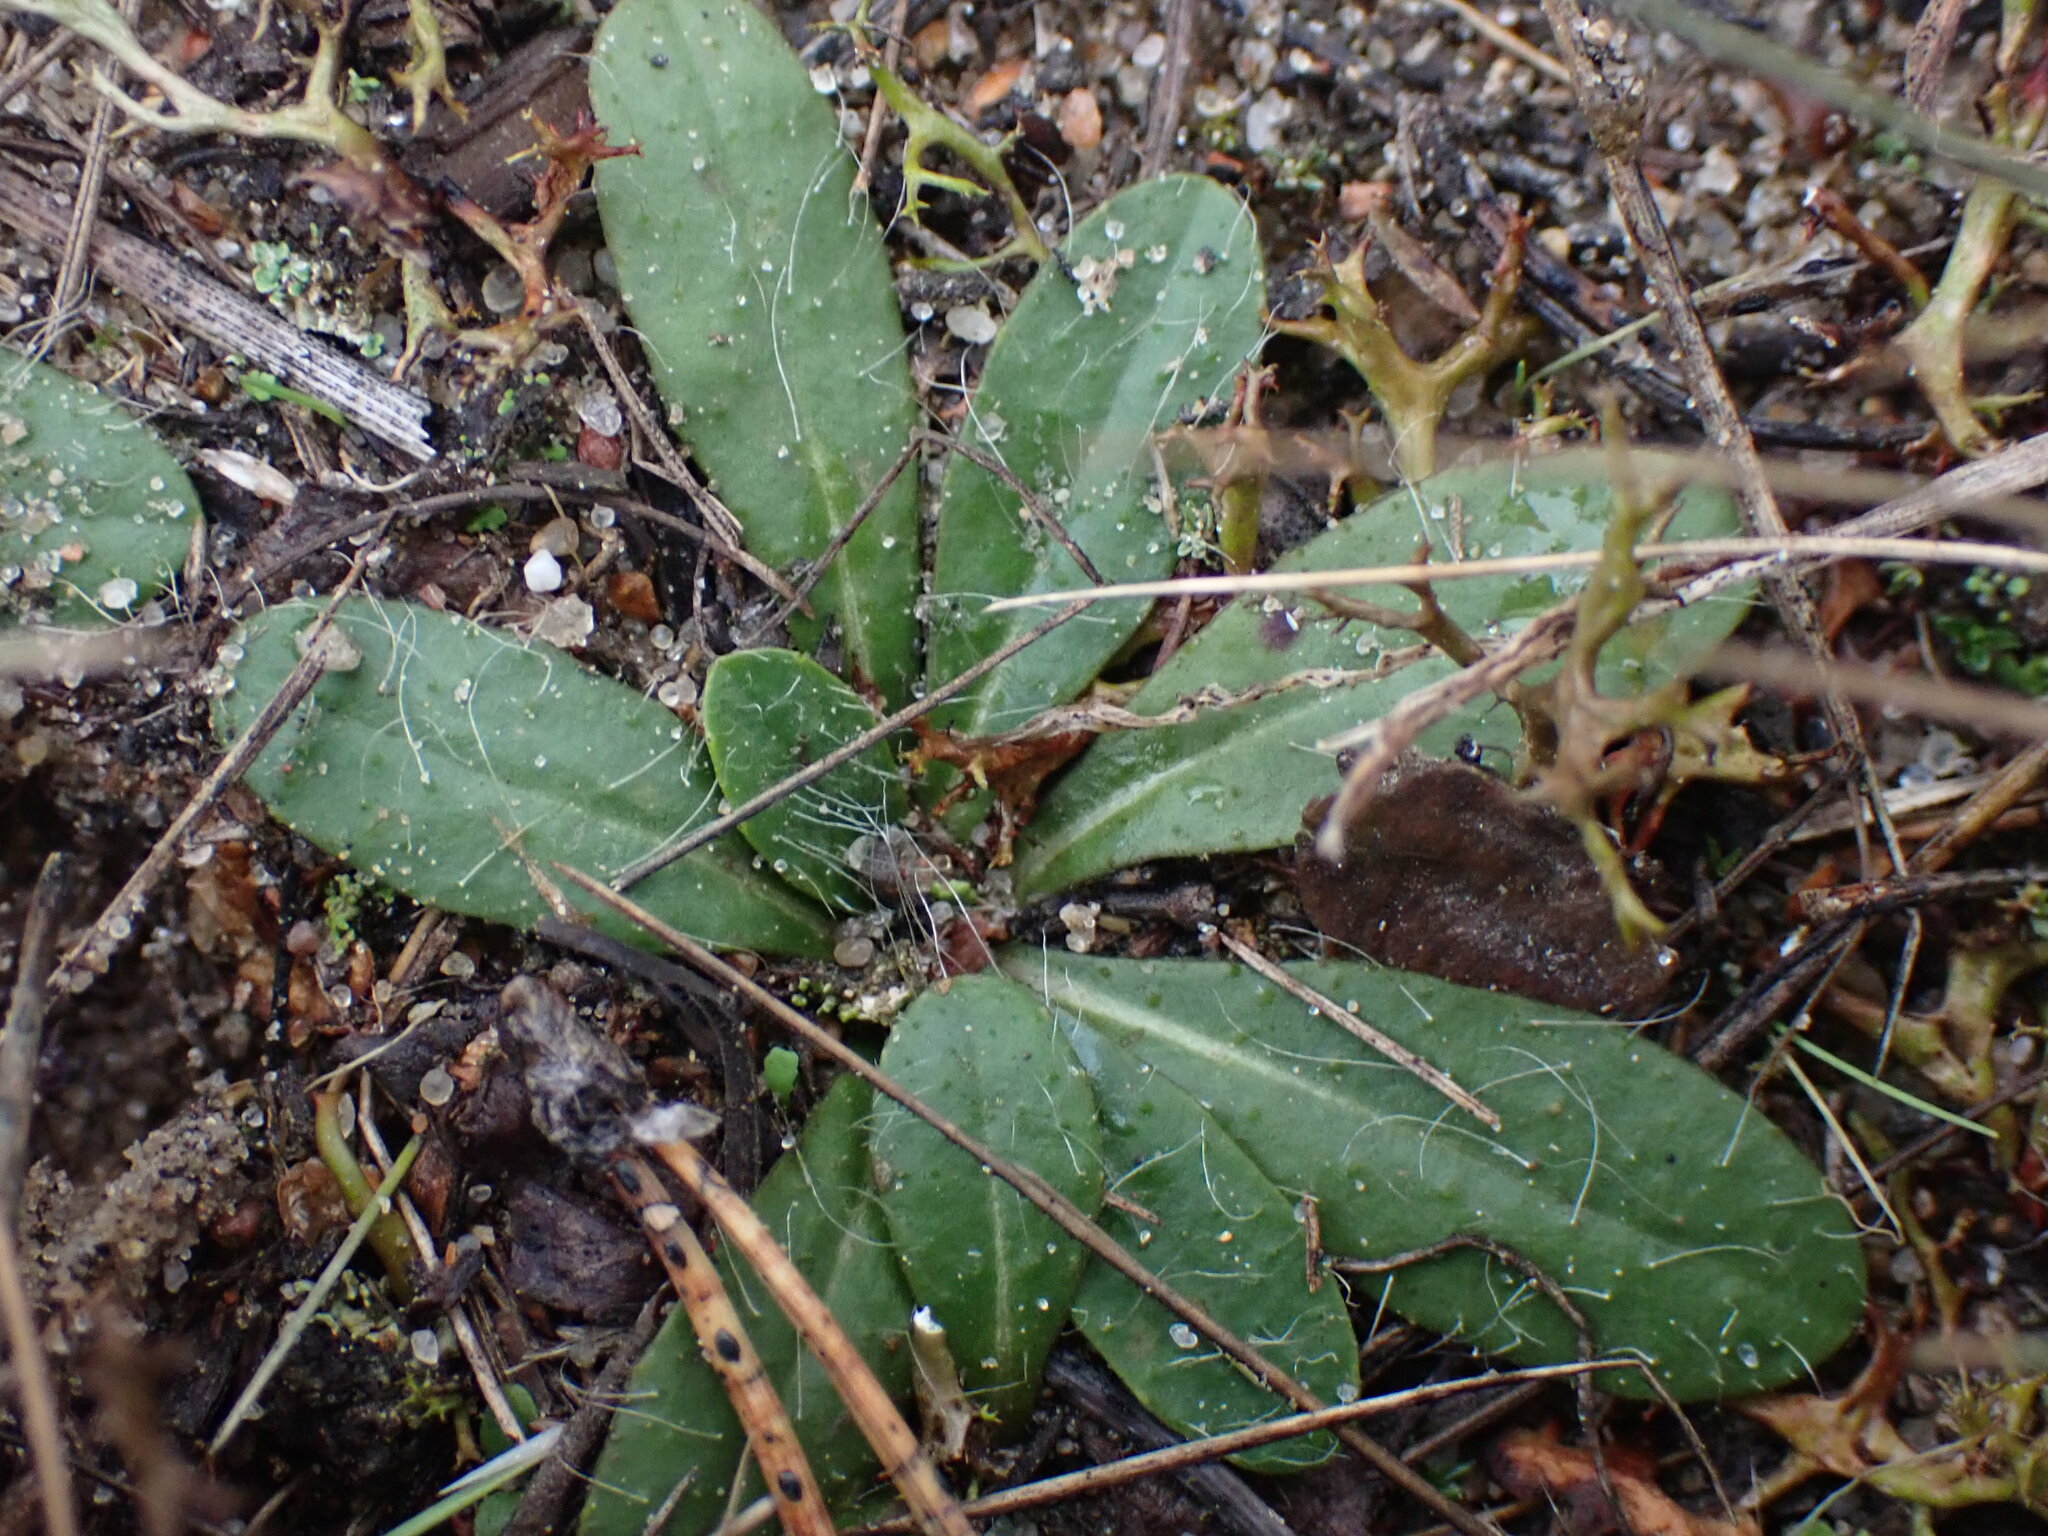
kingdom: Plantae
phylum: Tracheophyta
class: Magnoliopsida
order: Asterales
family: Asteraceae
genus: Pilosella
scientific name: Pilosella officinarum
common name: Mouse-ear hawkweed
